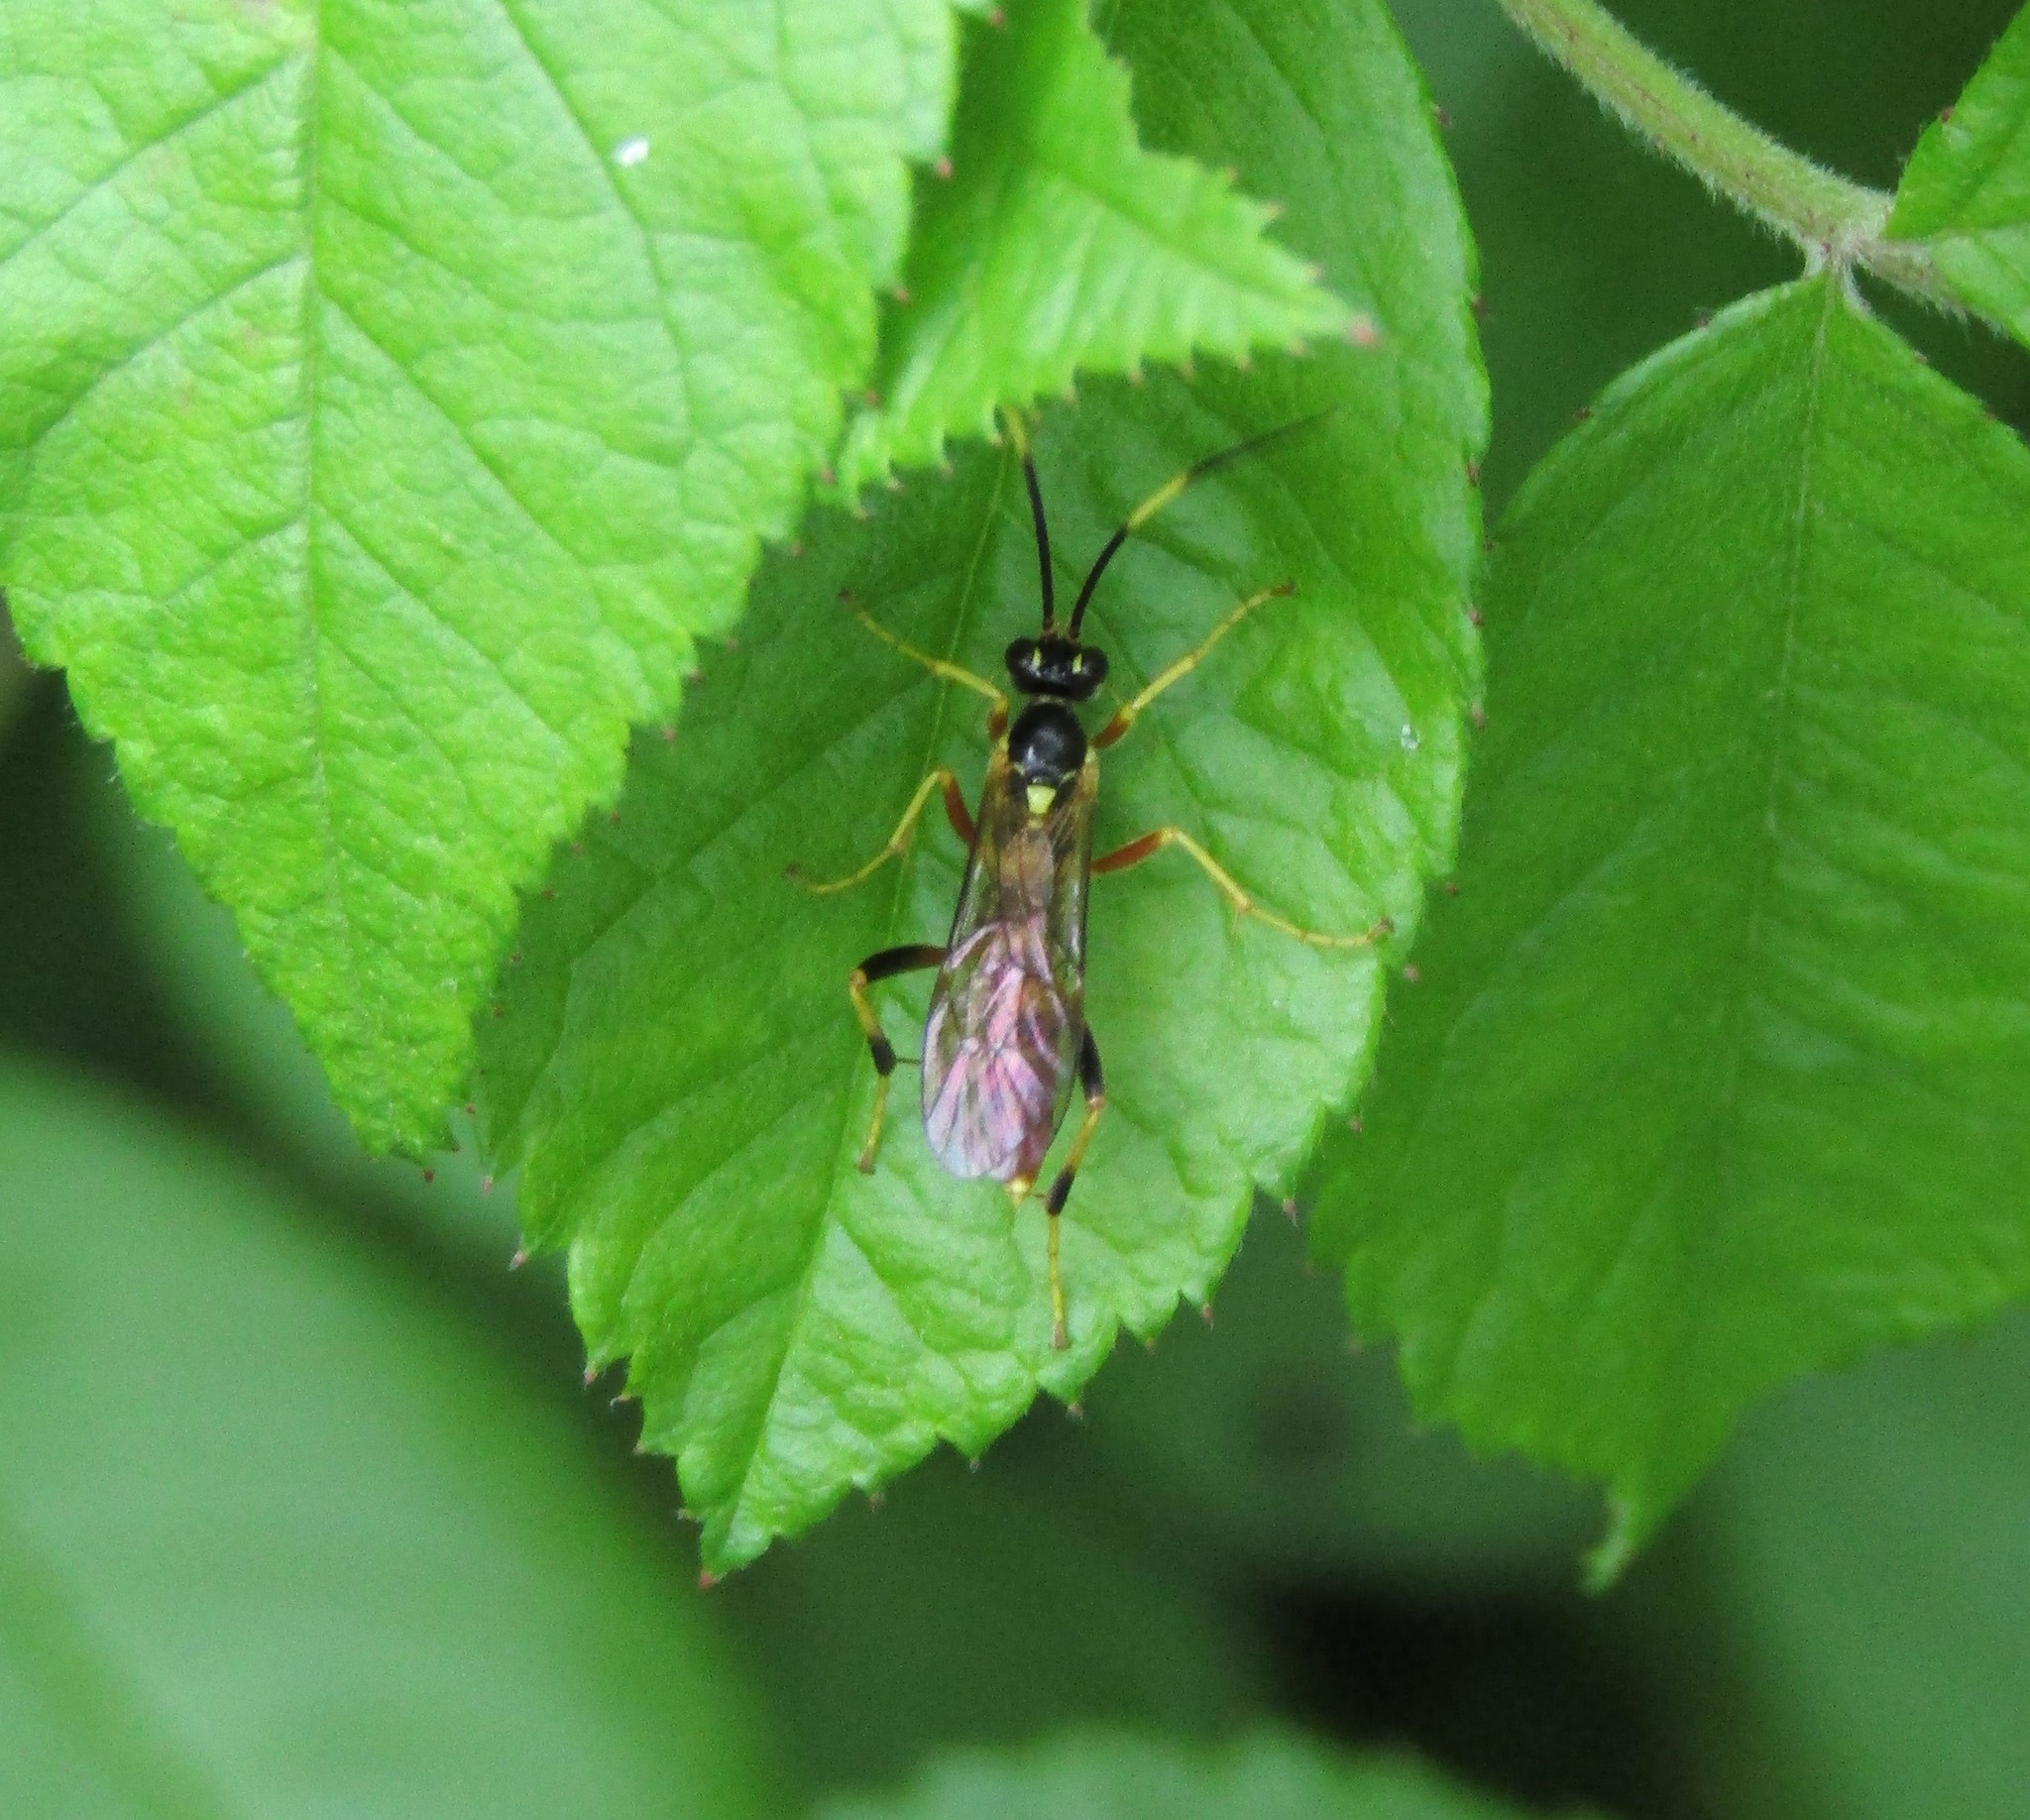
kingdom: Animalia
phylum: Arthropoda
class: Insecta
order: Hymenoptera
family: Ichneumonidae
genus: Polytribax
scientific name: Polytribax contiguus
